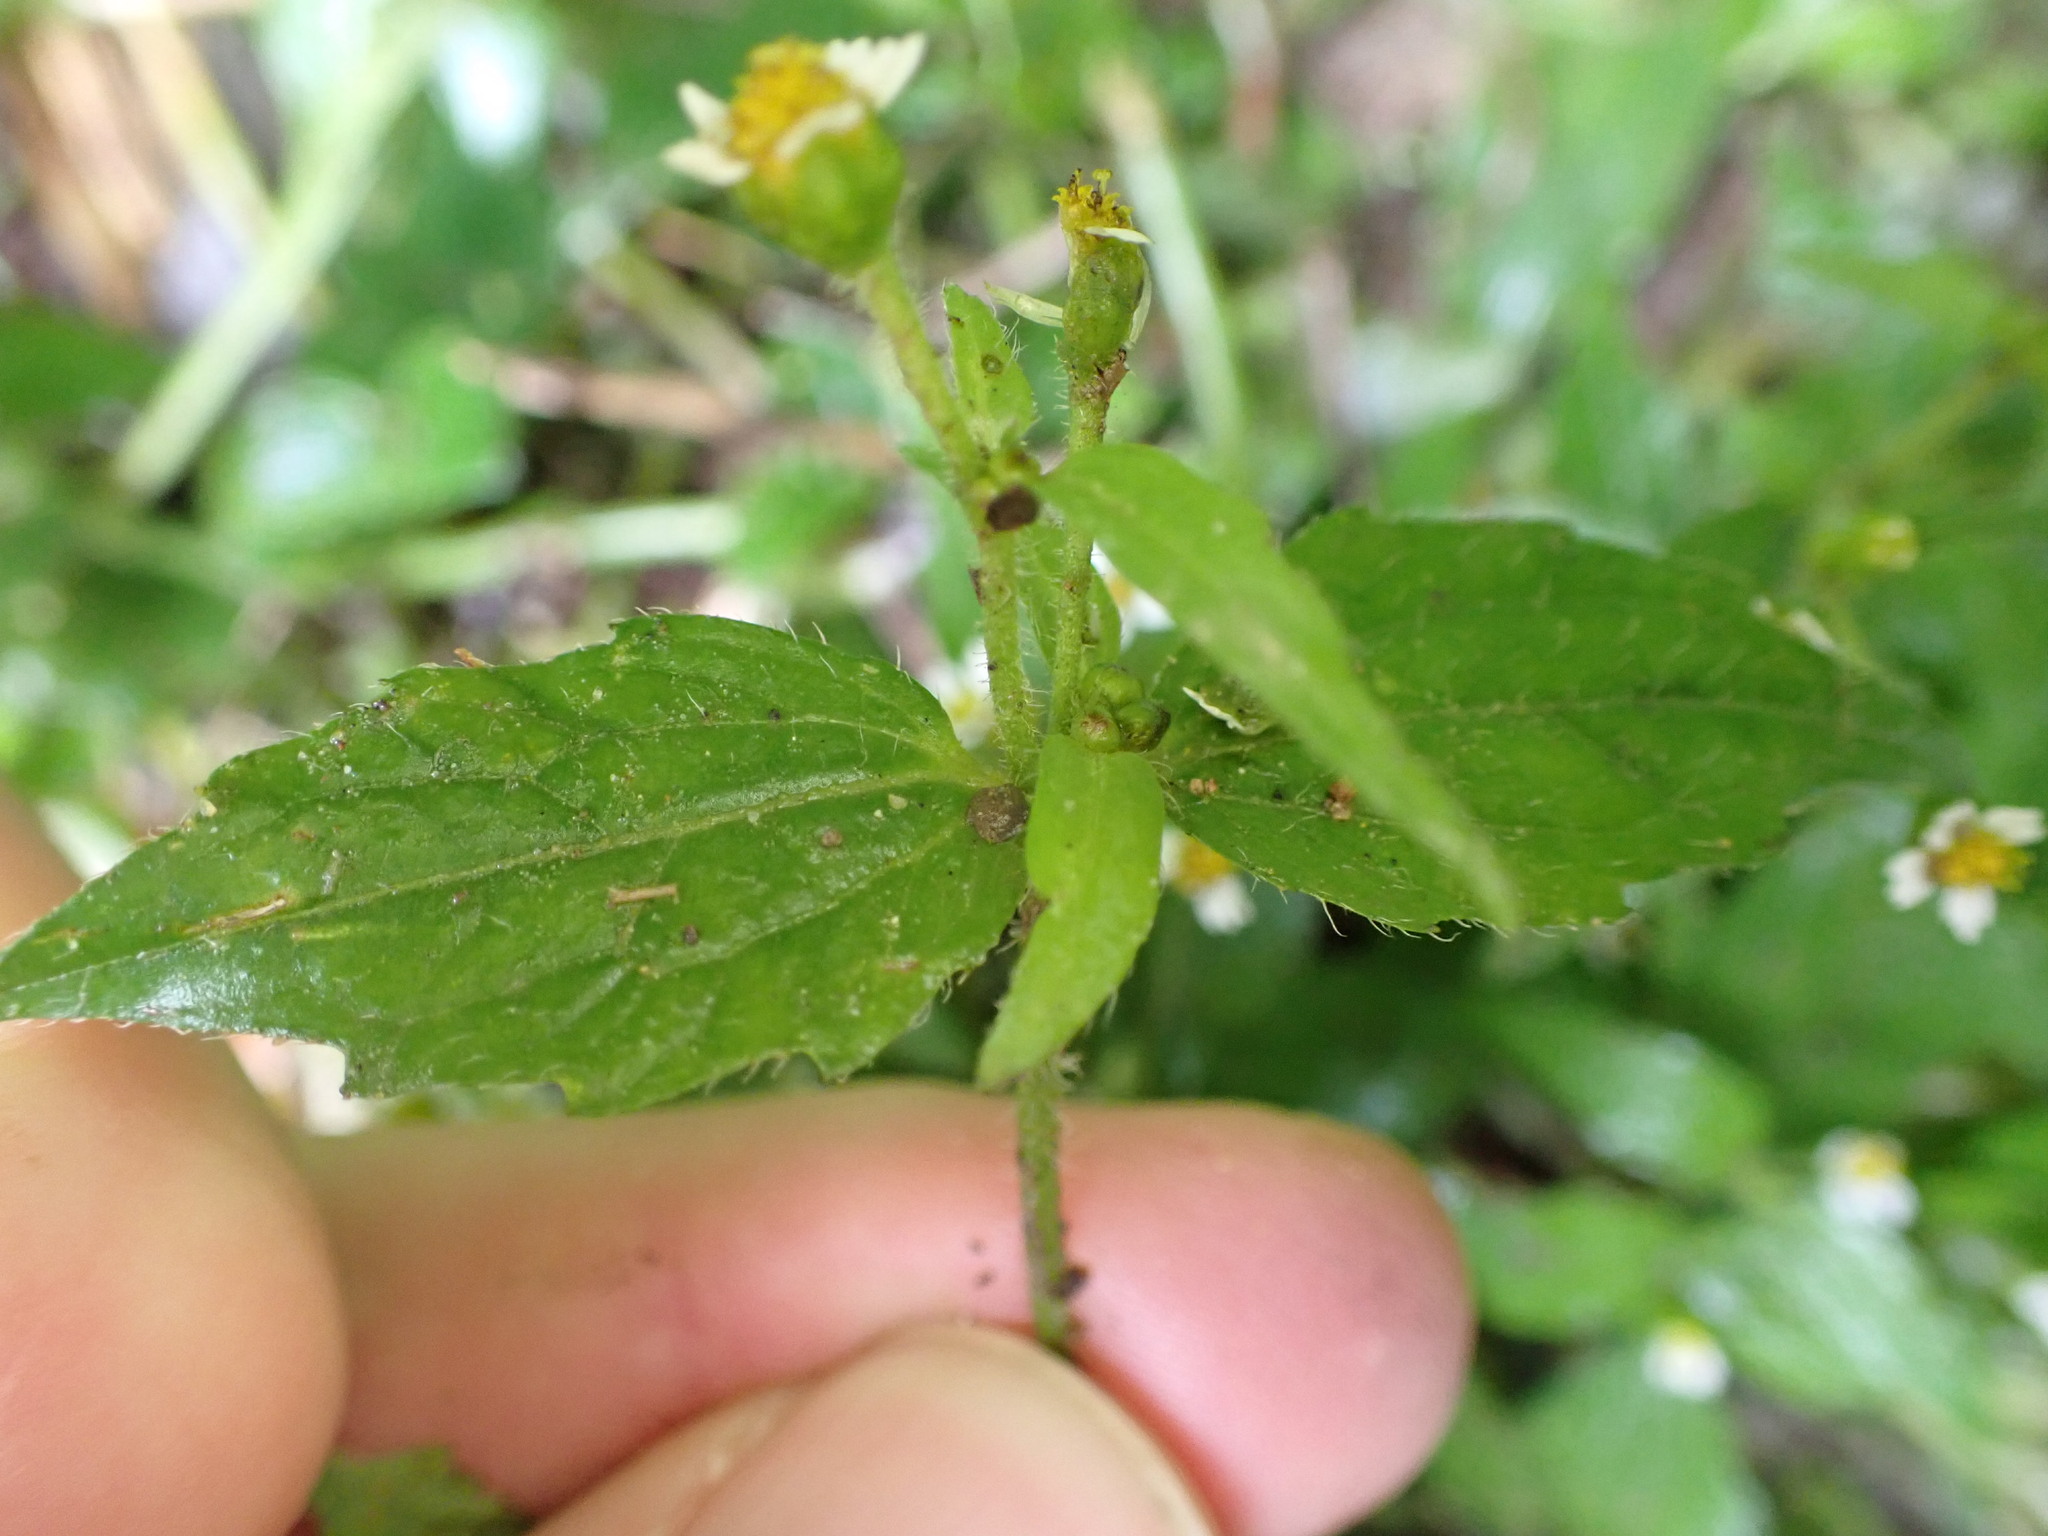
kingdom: Plantae
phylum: Tracheophyta
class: Magnoliopsida
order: Asterales
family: Asteraceae
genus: Galinsoga
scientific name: Galinsoga quadriradiata
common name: Shaggy soldier
